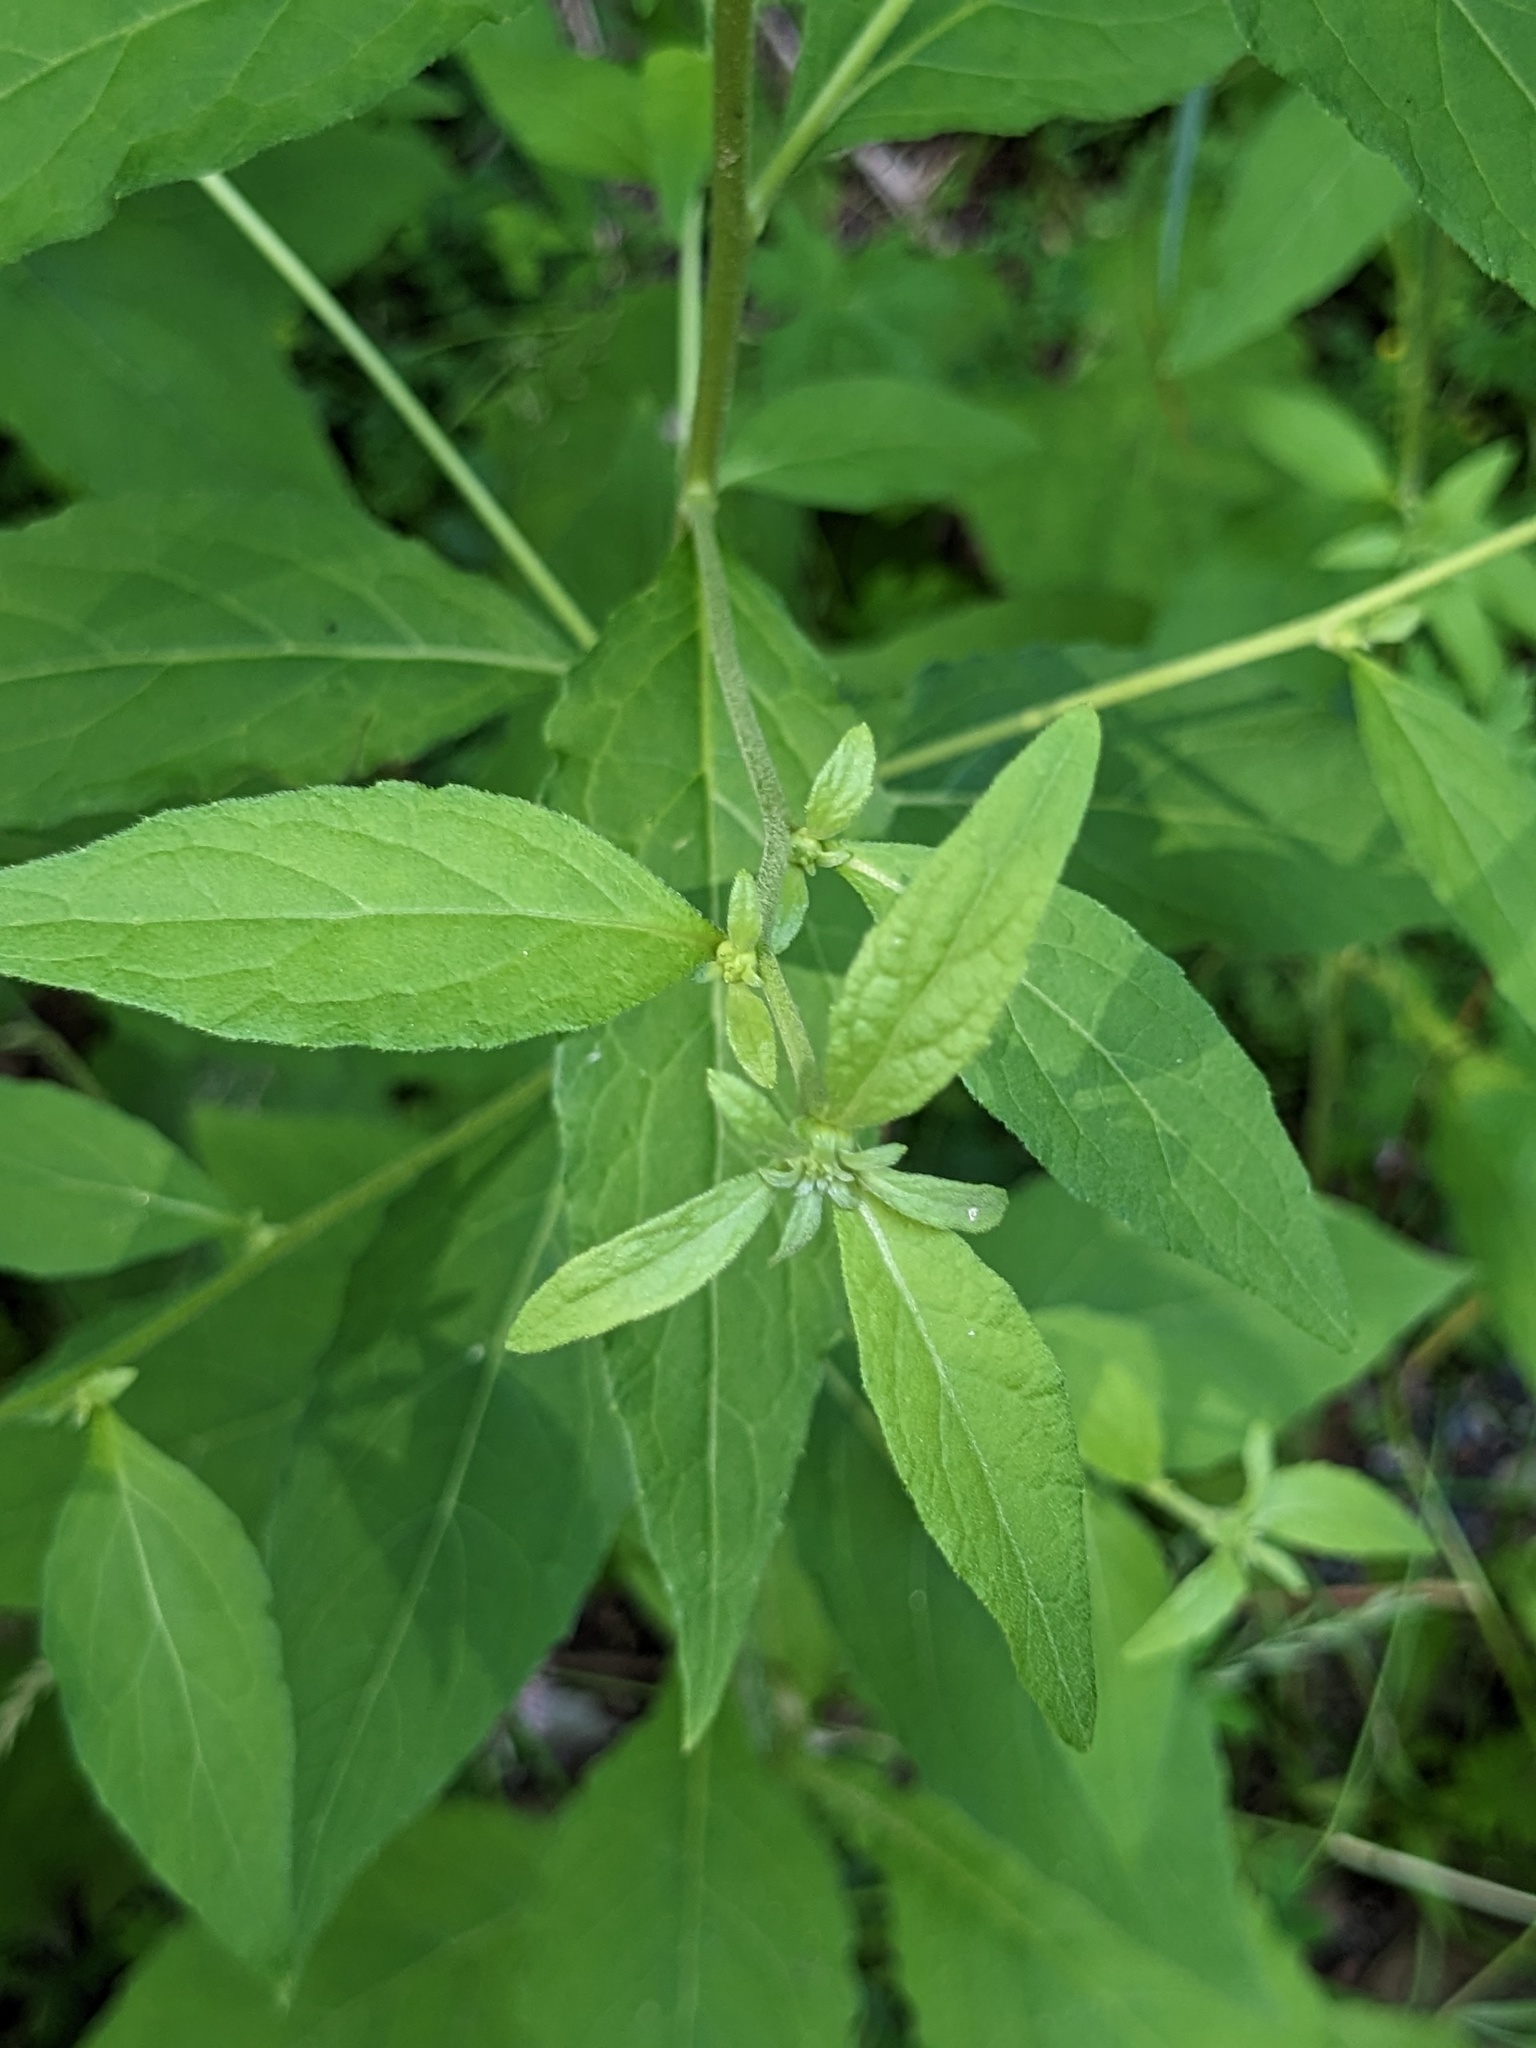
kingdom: Plantae
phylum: Tracheophyta
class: Magnoliopsida
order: Asterales
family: Asteraceae
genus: Carpesium
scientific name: Carpesium cernuum
